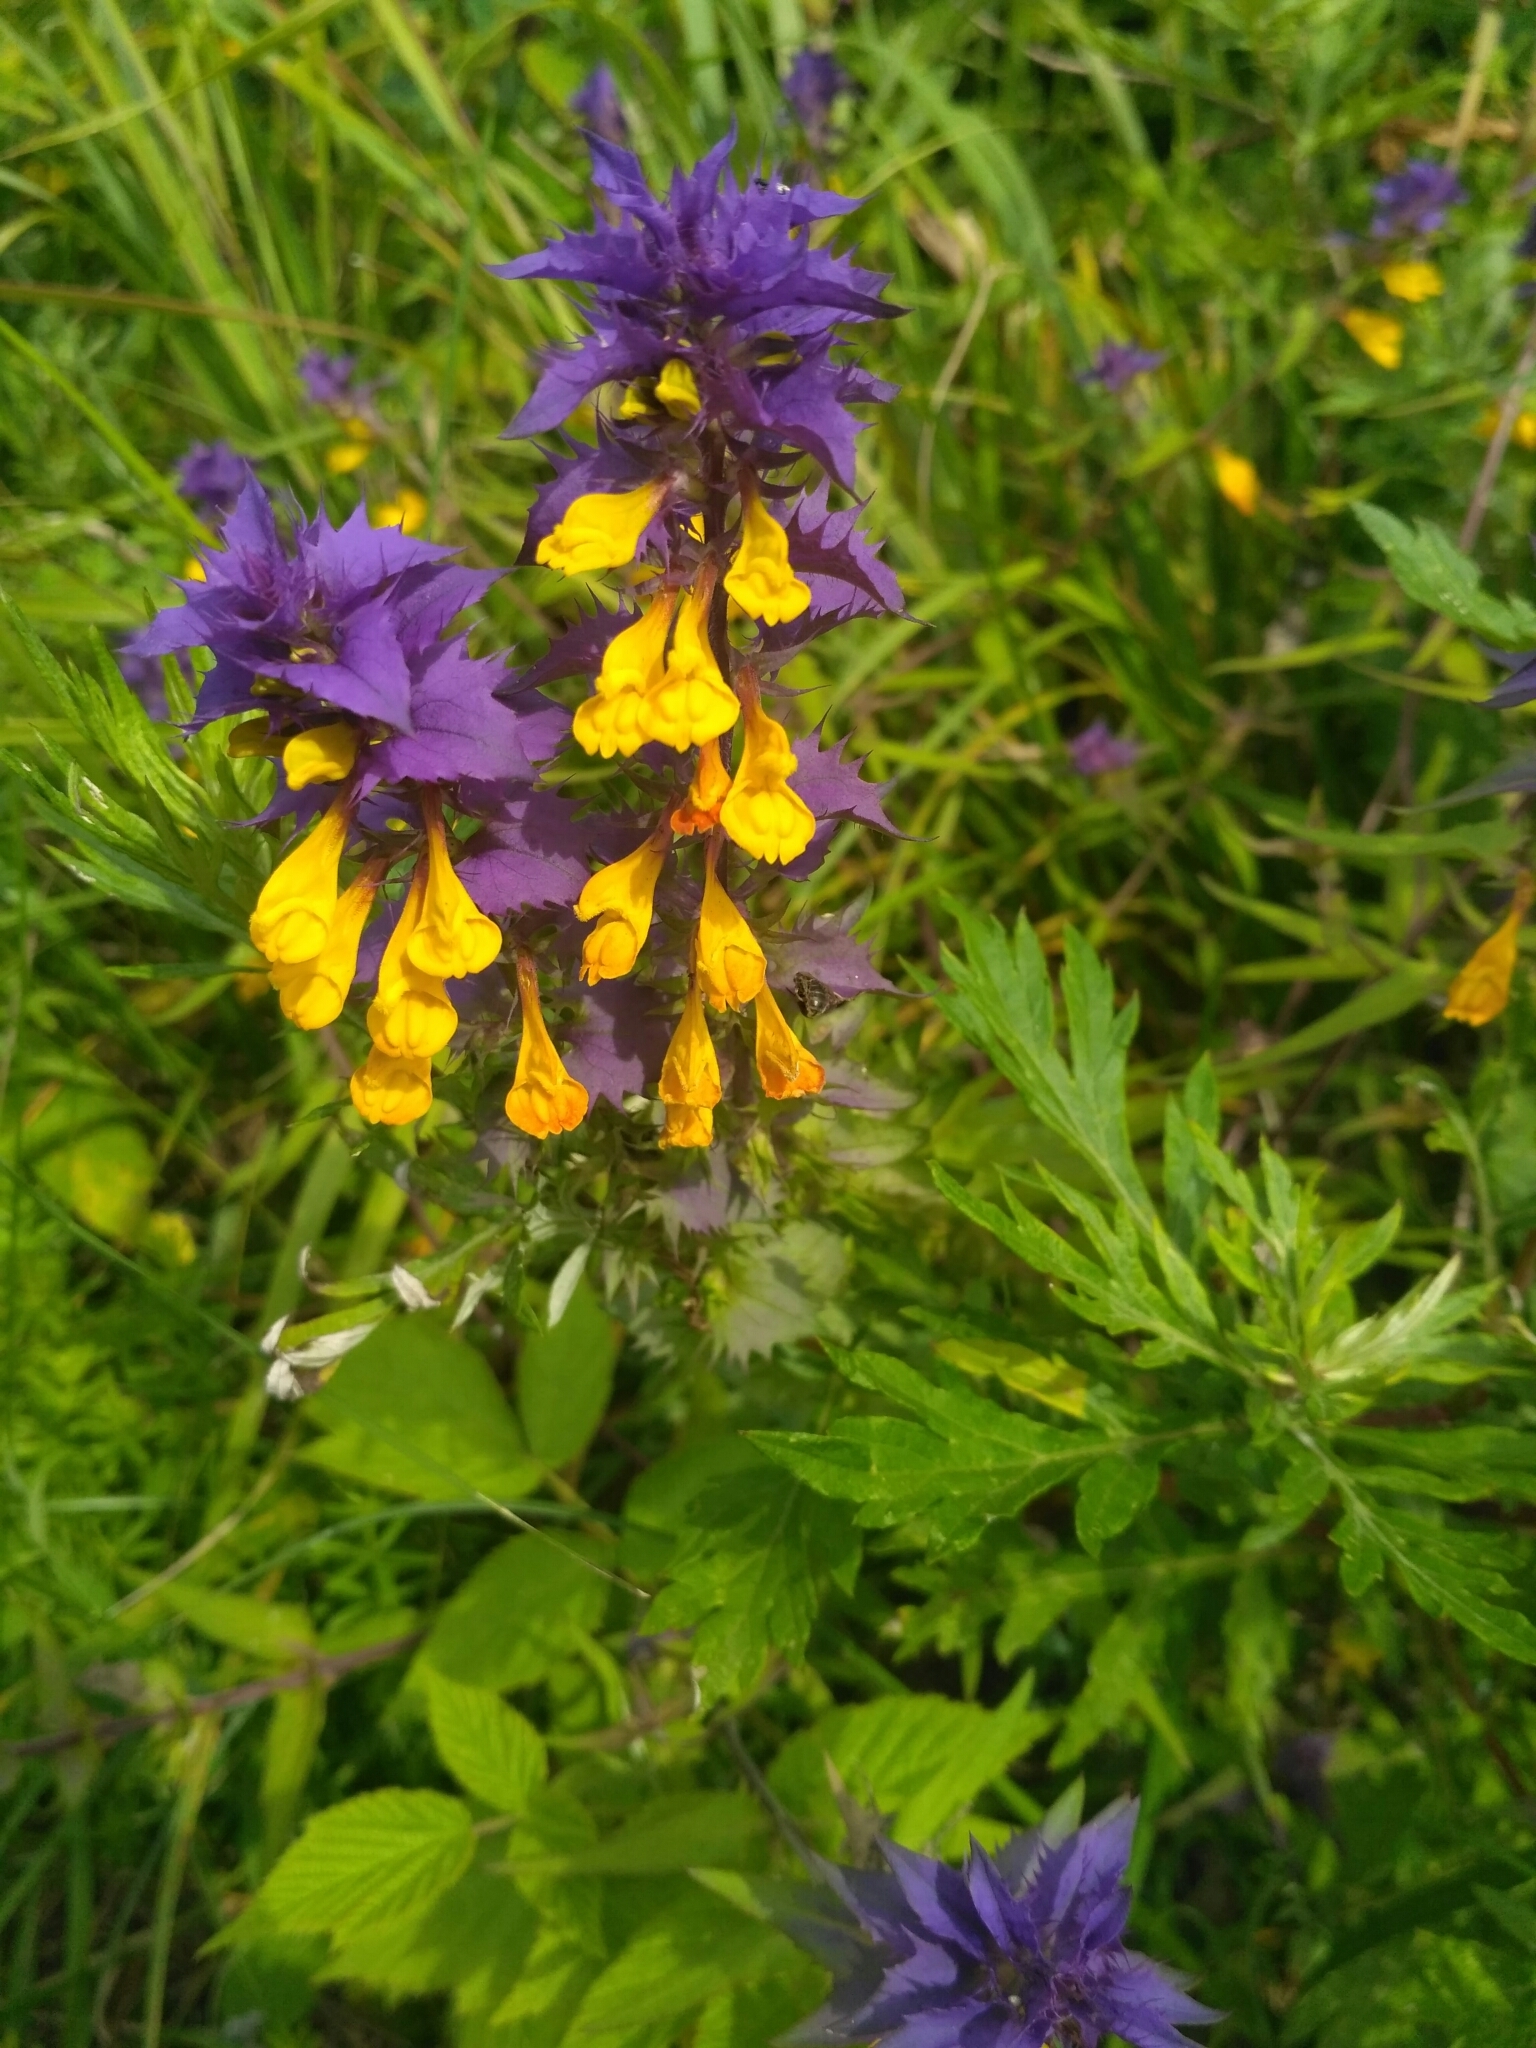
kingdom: Plantae
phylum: Tracheophyta
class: Magnoliopsida
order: Lamiales
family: Orobanchaceae
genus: Melampyrum
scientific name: Melampyrum nemorosum
